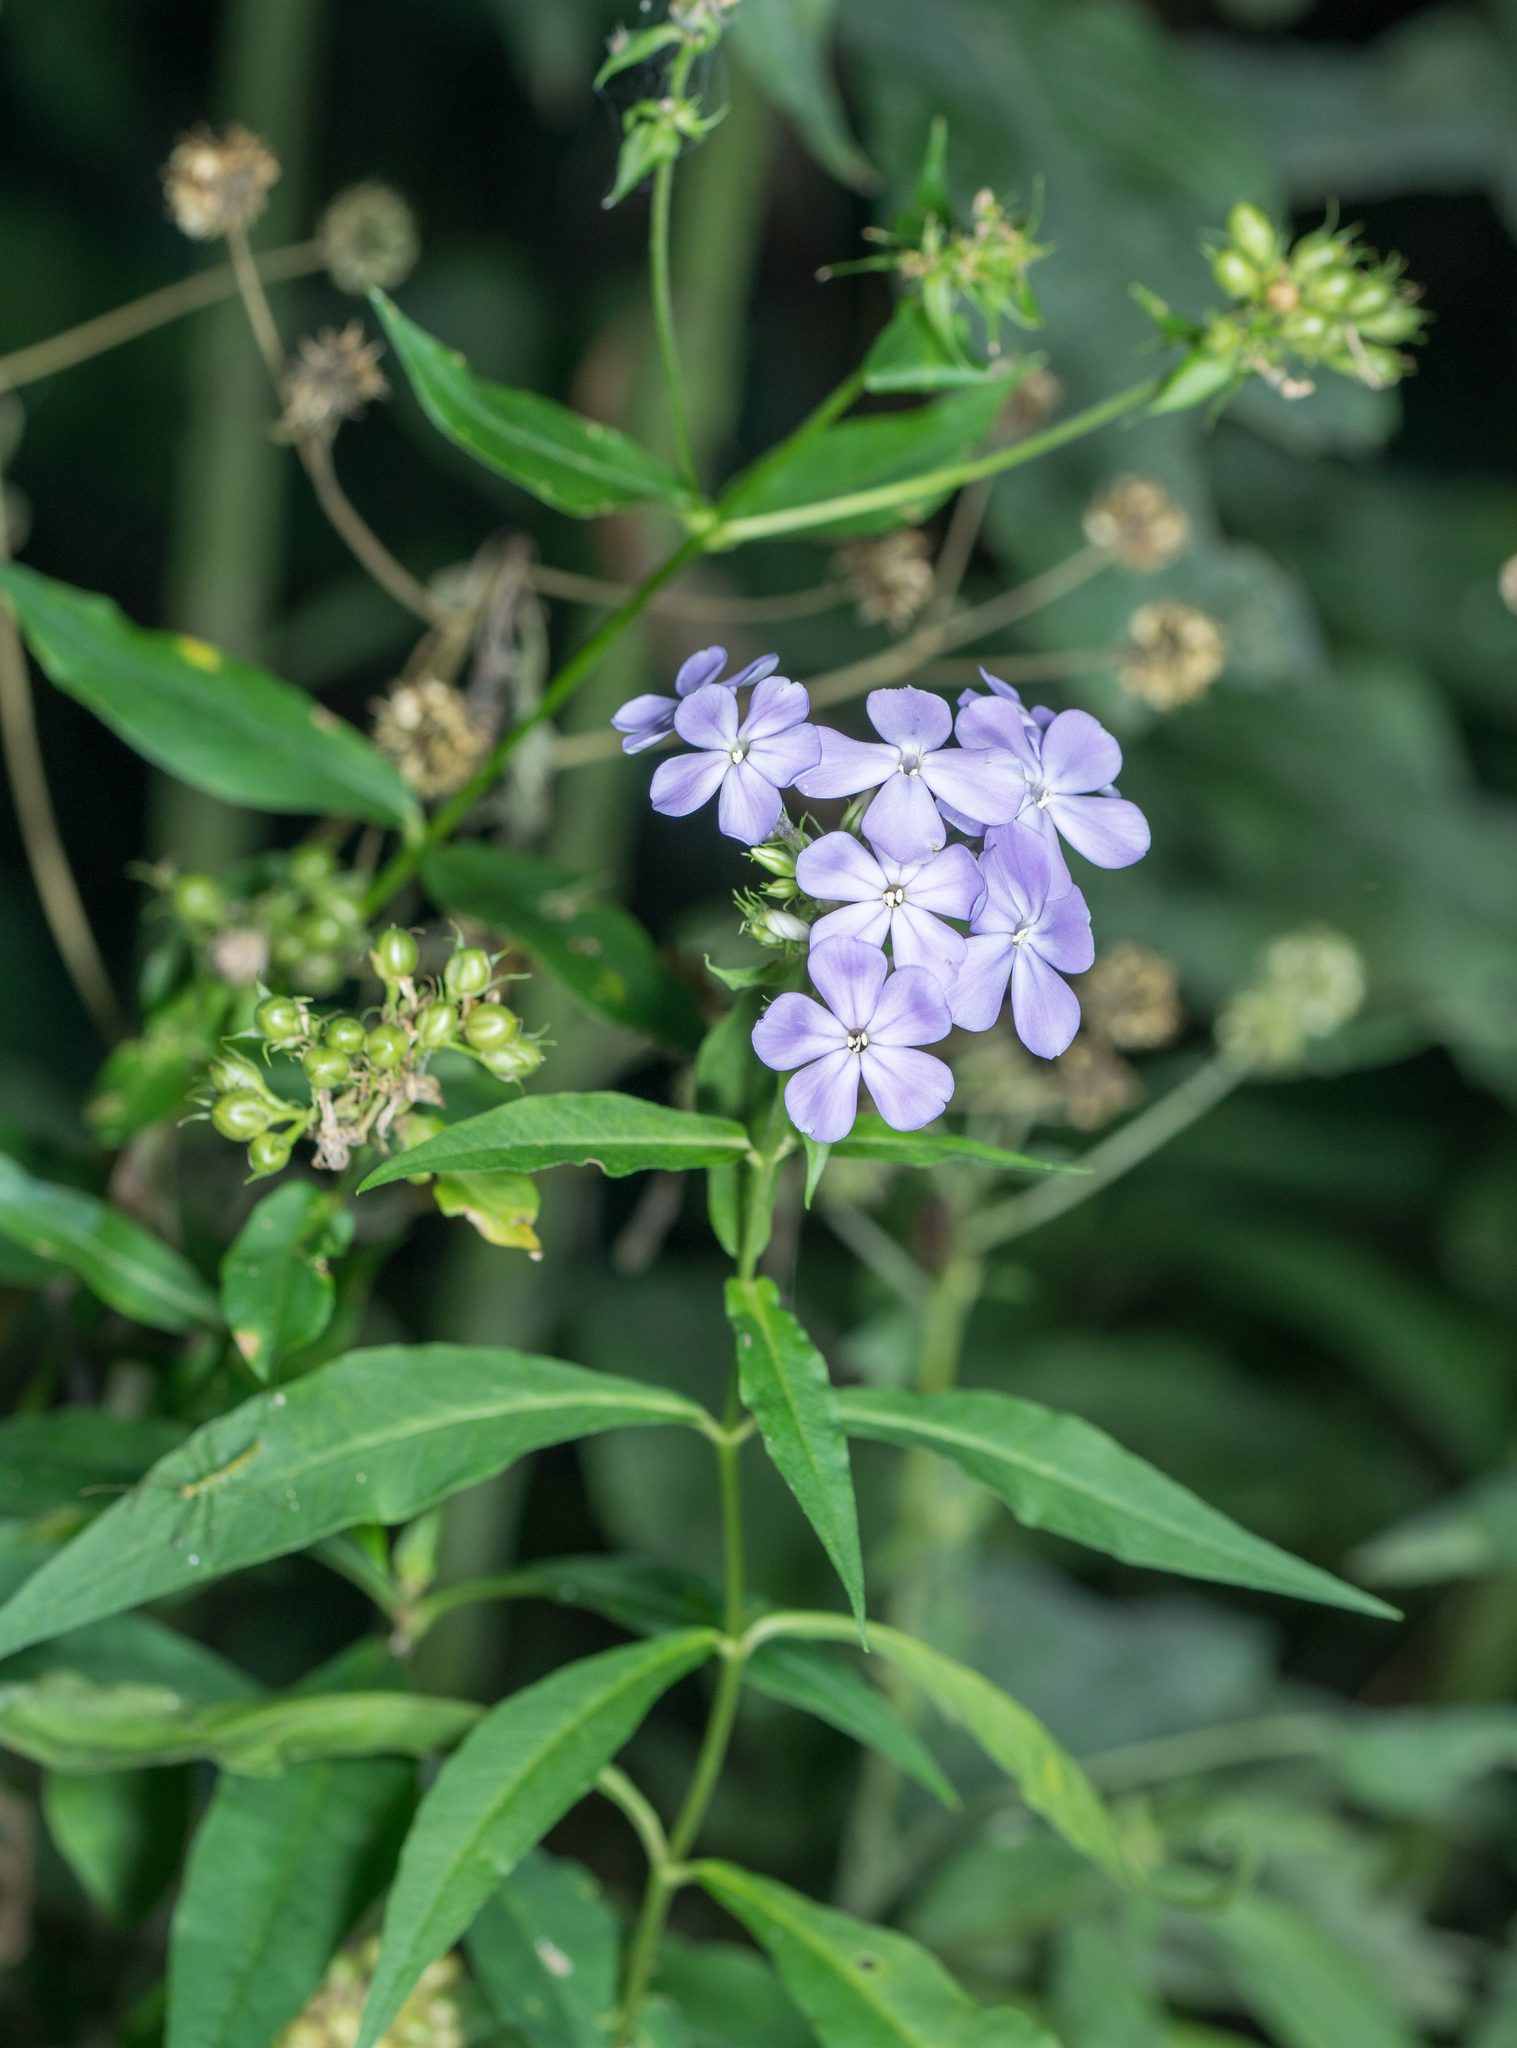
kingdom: Plantae
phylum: Tracheophyta
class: Magnoliopsida
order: Ericales
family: Polemoniaceae
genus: Phlox
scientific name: Phlox paniculata
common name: Fall phlox
